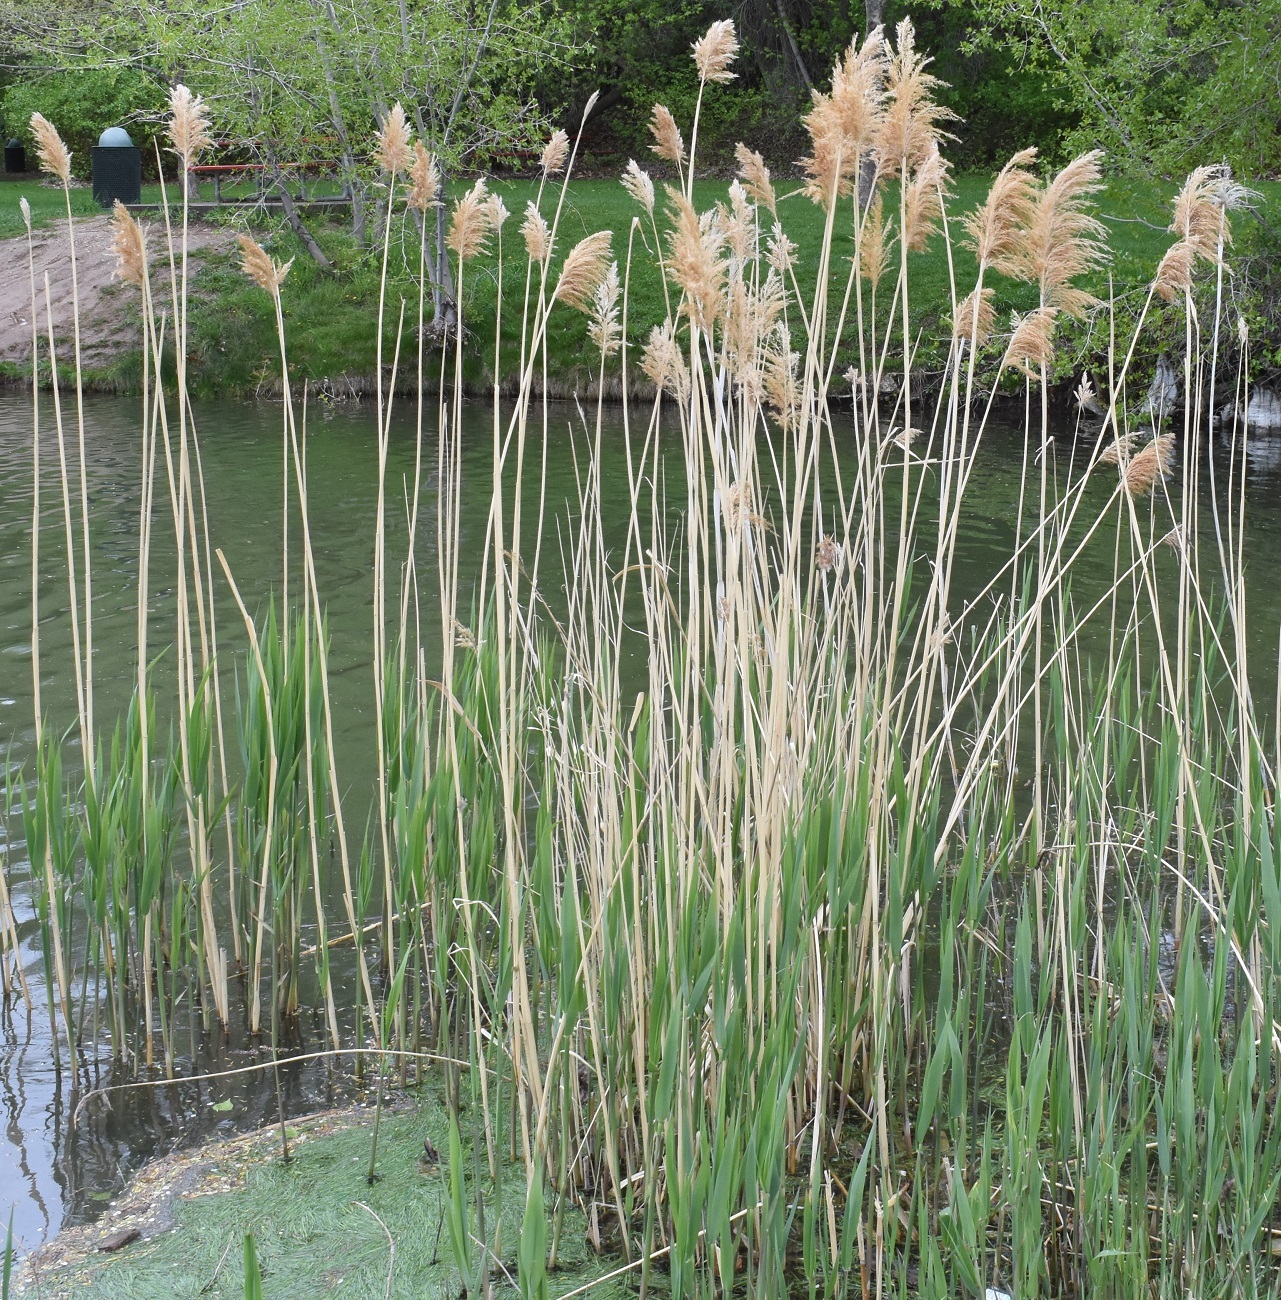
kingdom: Plantae
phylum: Tracheophyta
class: Liliopsida
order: Poales
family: Poaceae
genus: Phragmites
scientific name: Phragmites australis
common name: Common reed
